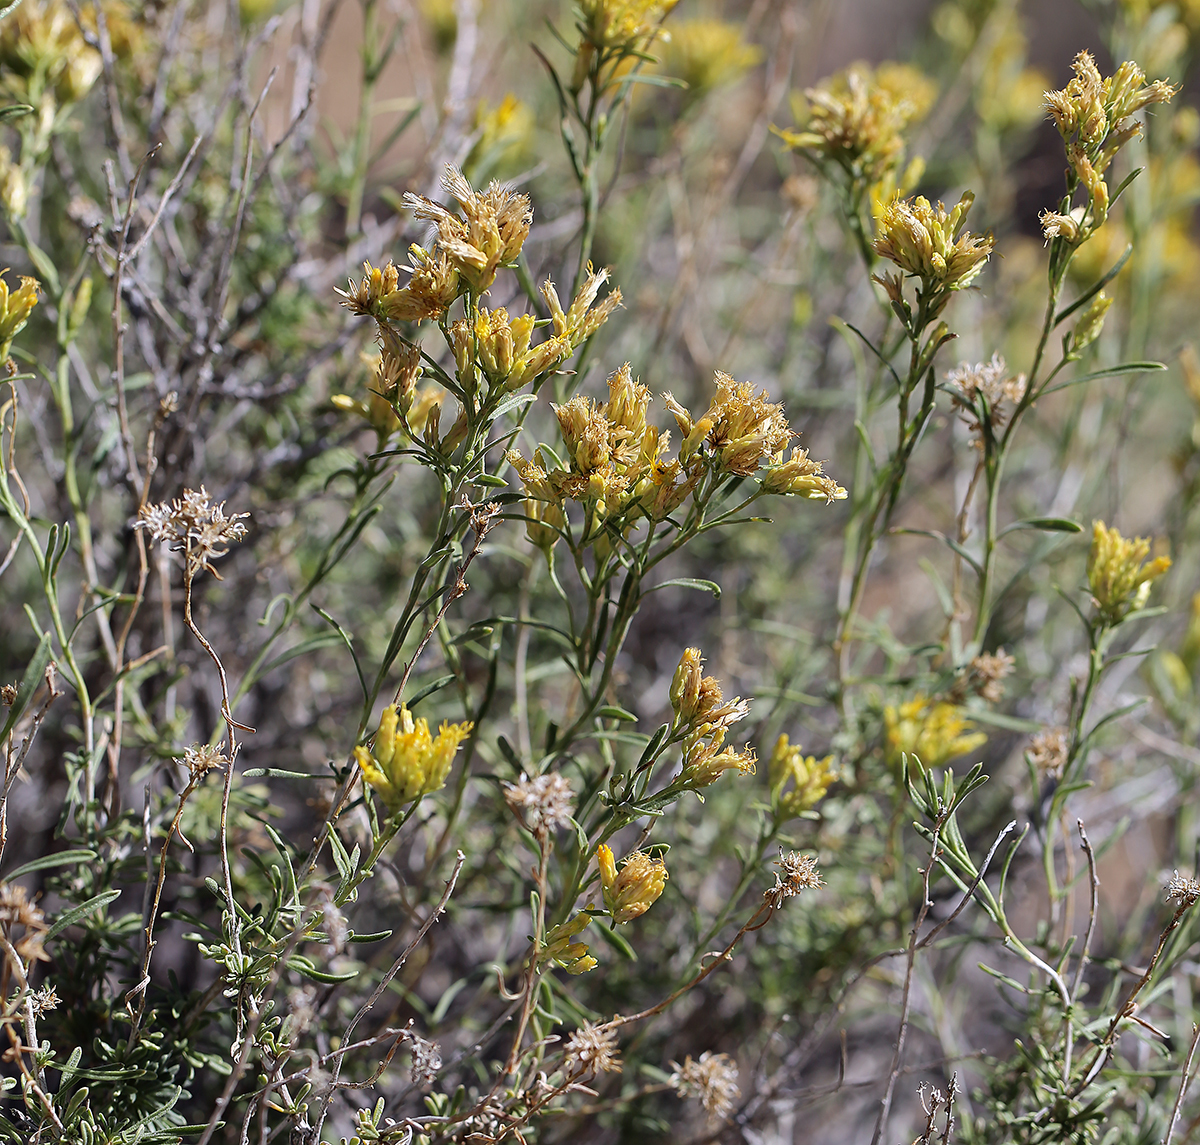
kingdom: Plantae
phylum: Tracheophyta
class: Magnoliopsida
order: Asterales
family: Asteraceae
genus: Chrysothamnus
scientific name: Chrysothamnus viscidiflorus
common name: Yellow rabbitbrush
